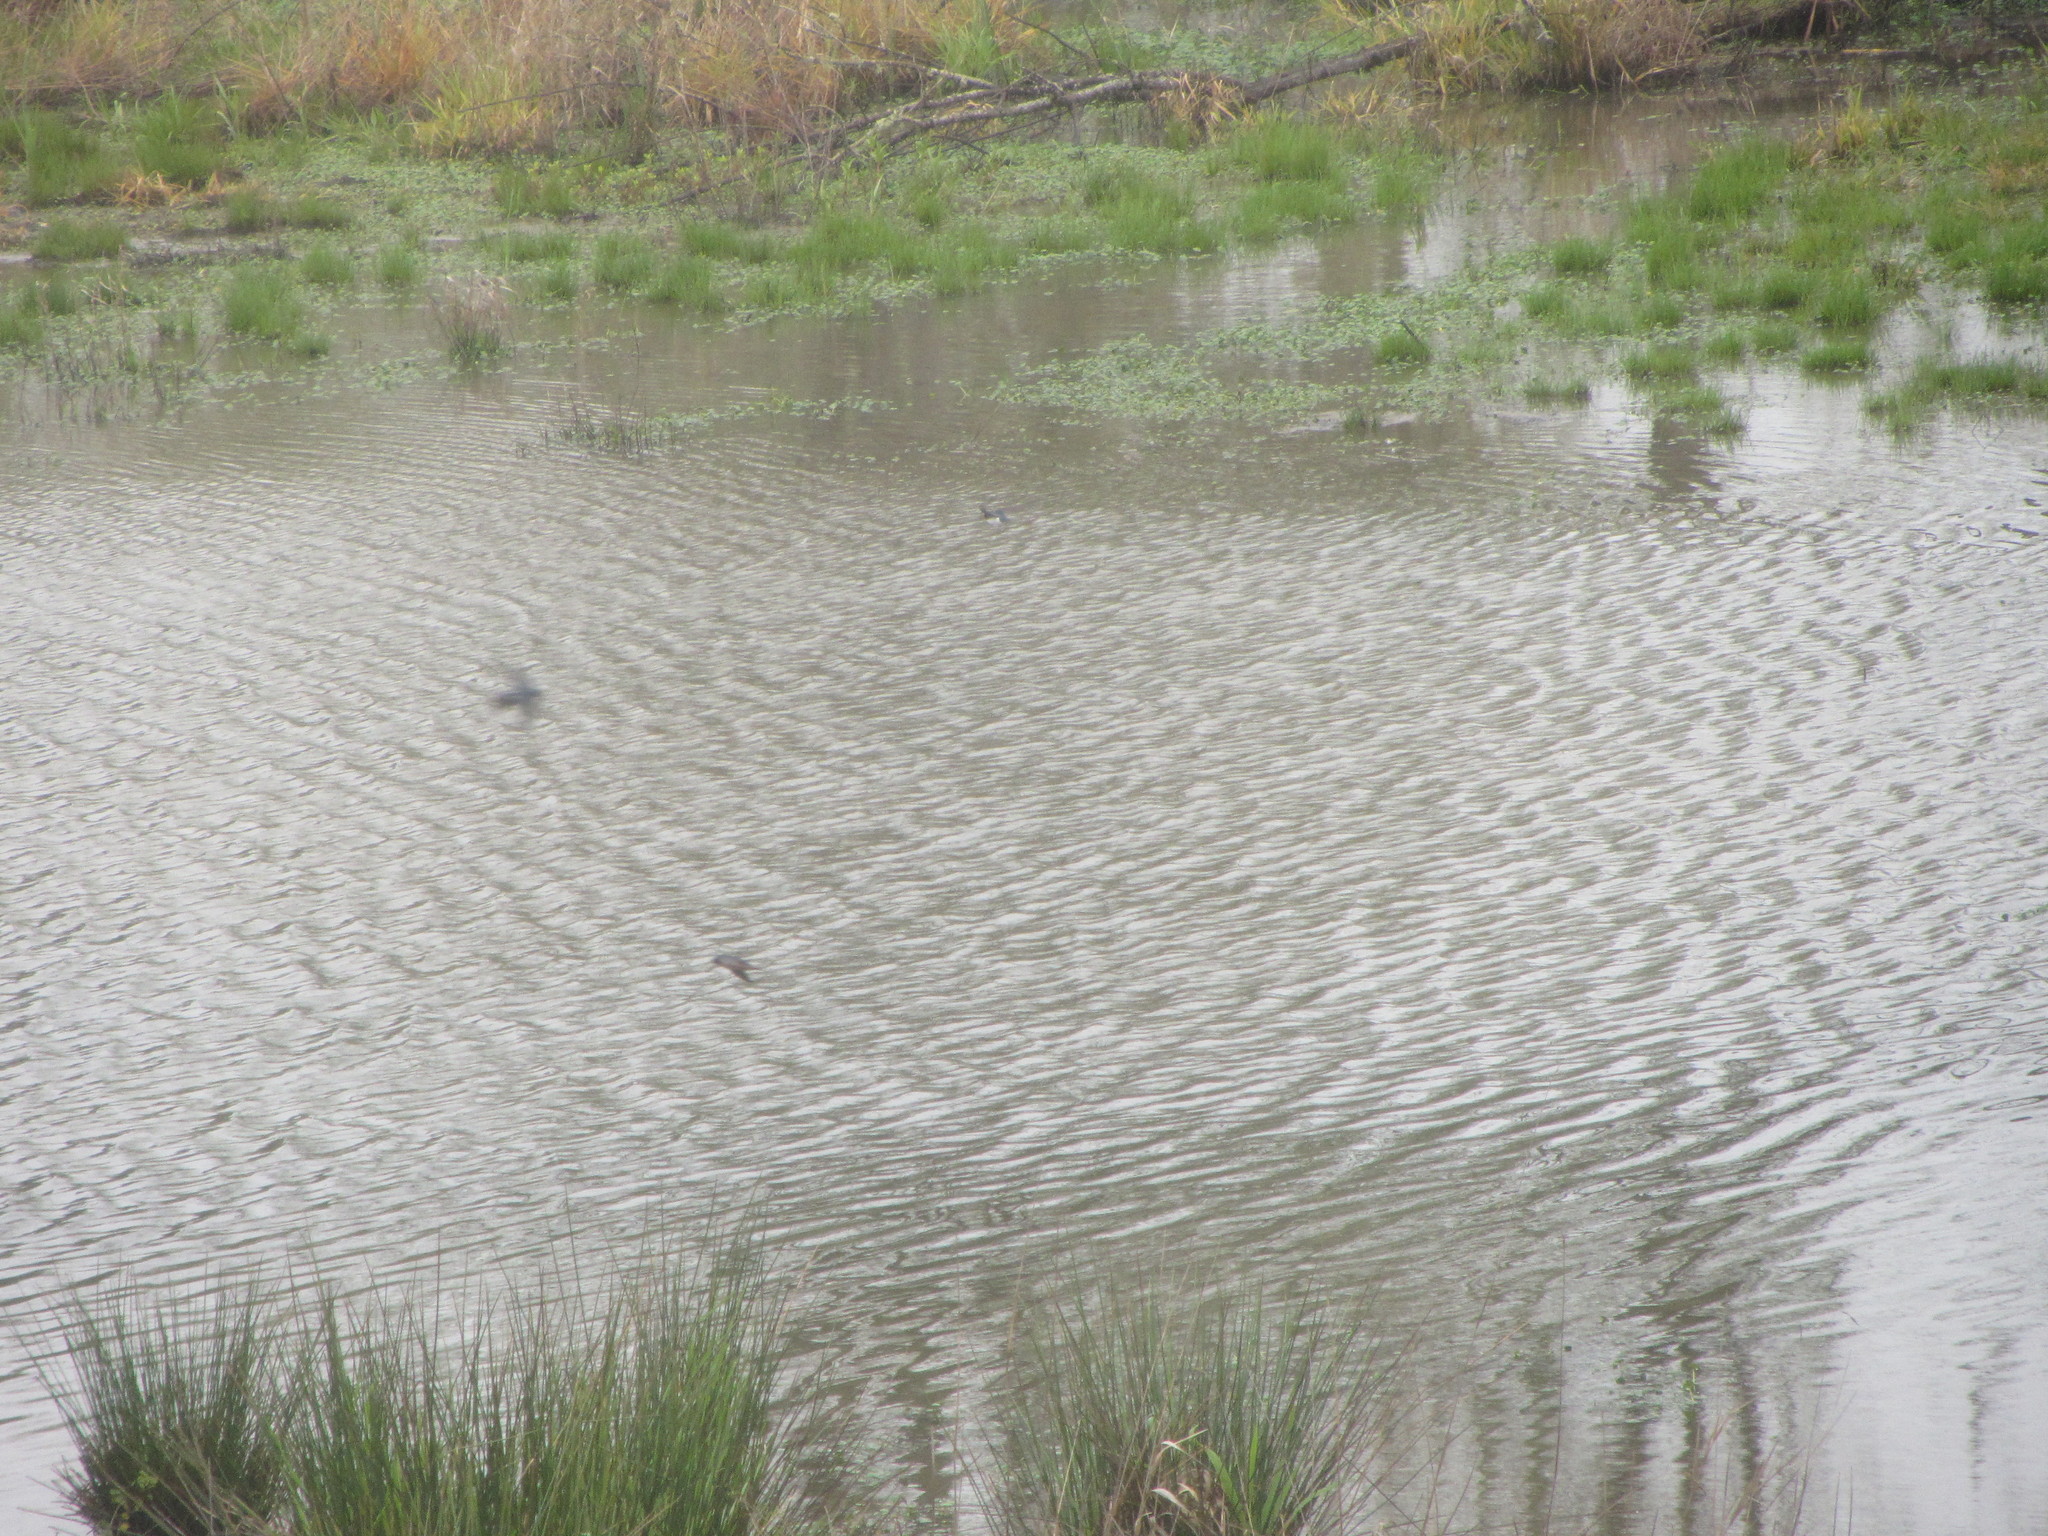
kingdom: Animalia
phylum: Chordata
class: Aves
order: Passeriformes
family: Hirundinidae
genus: Hirundo
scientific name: Hirundo rustica
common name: Barn swallow
